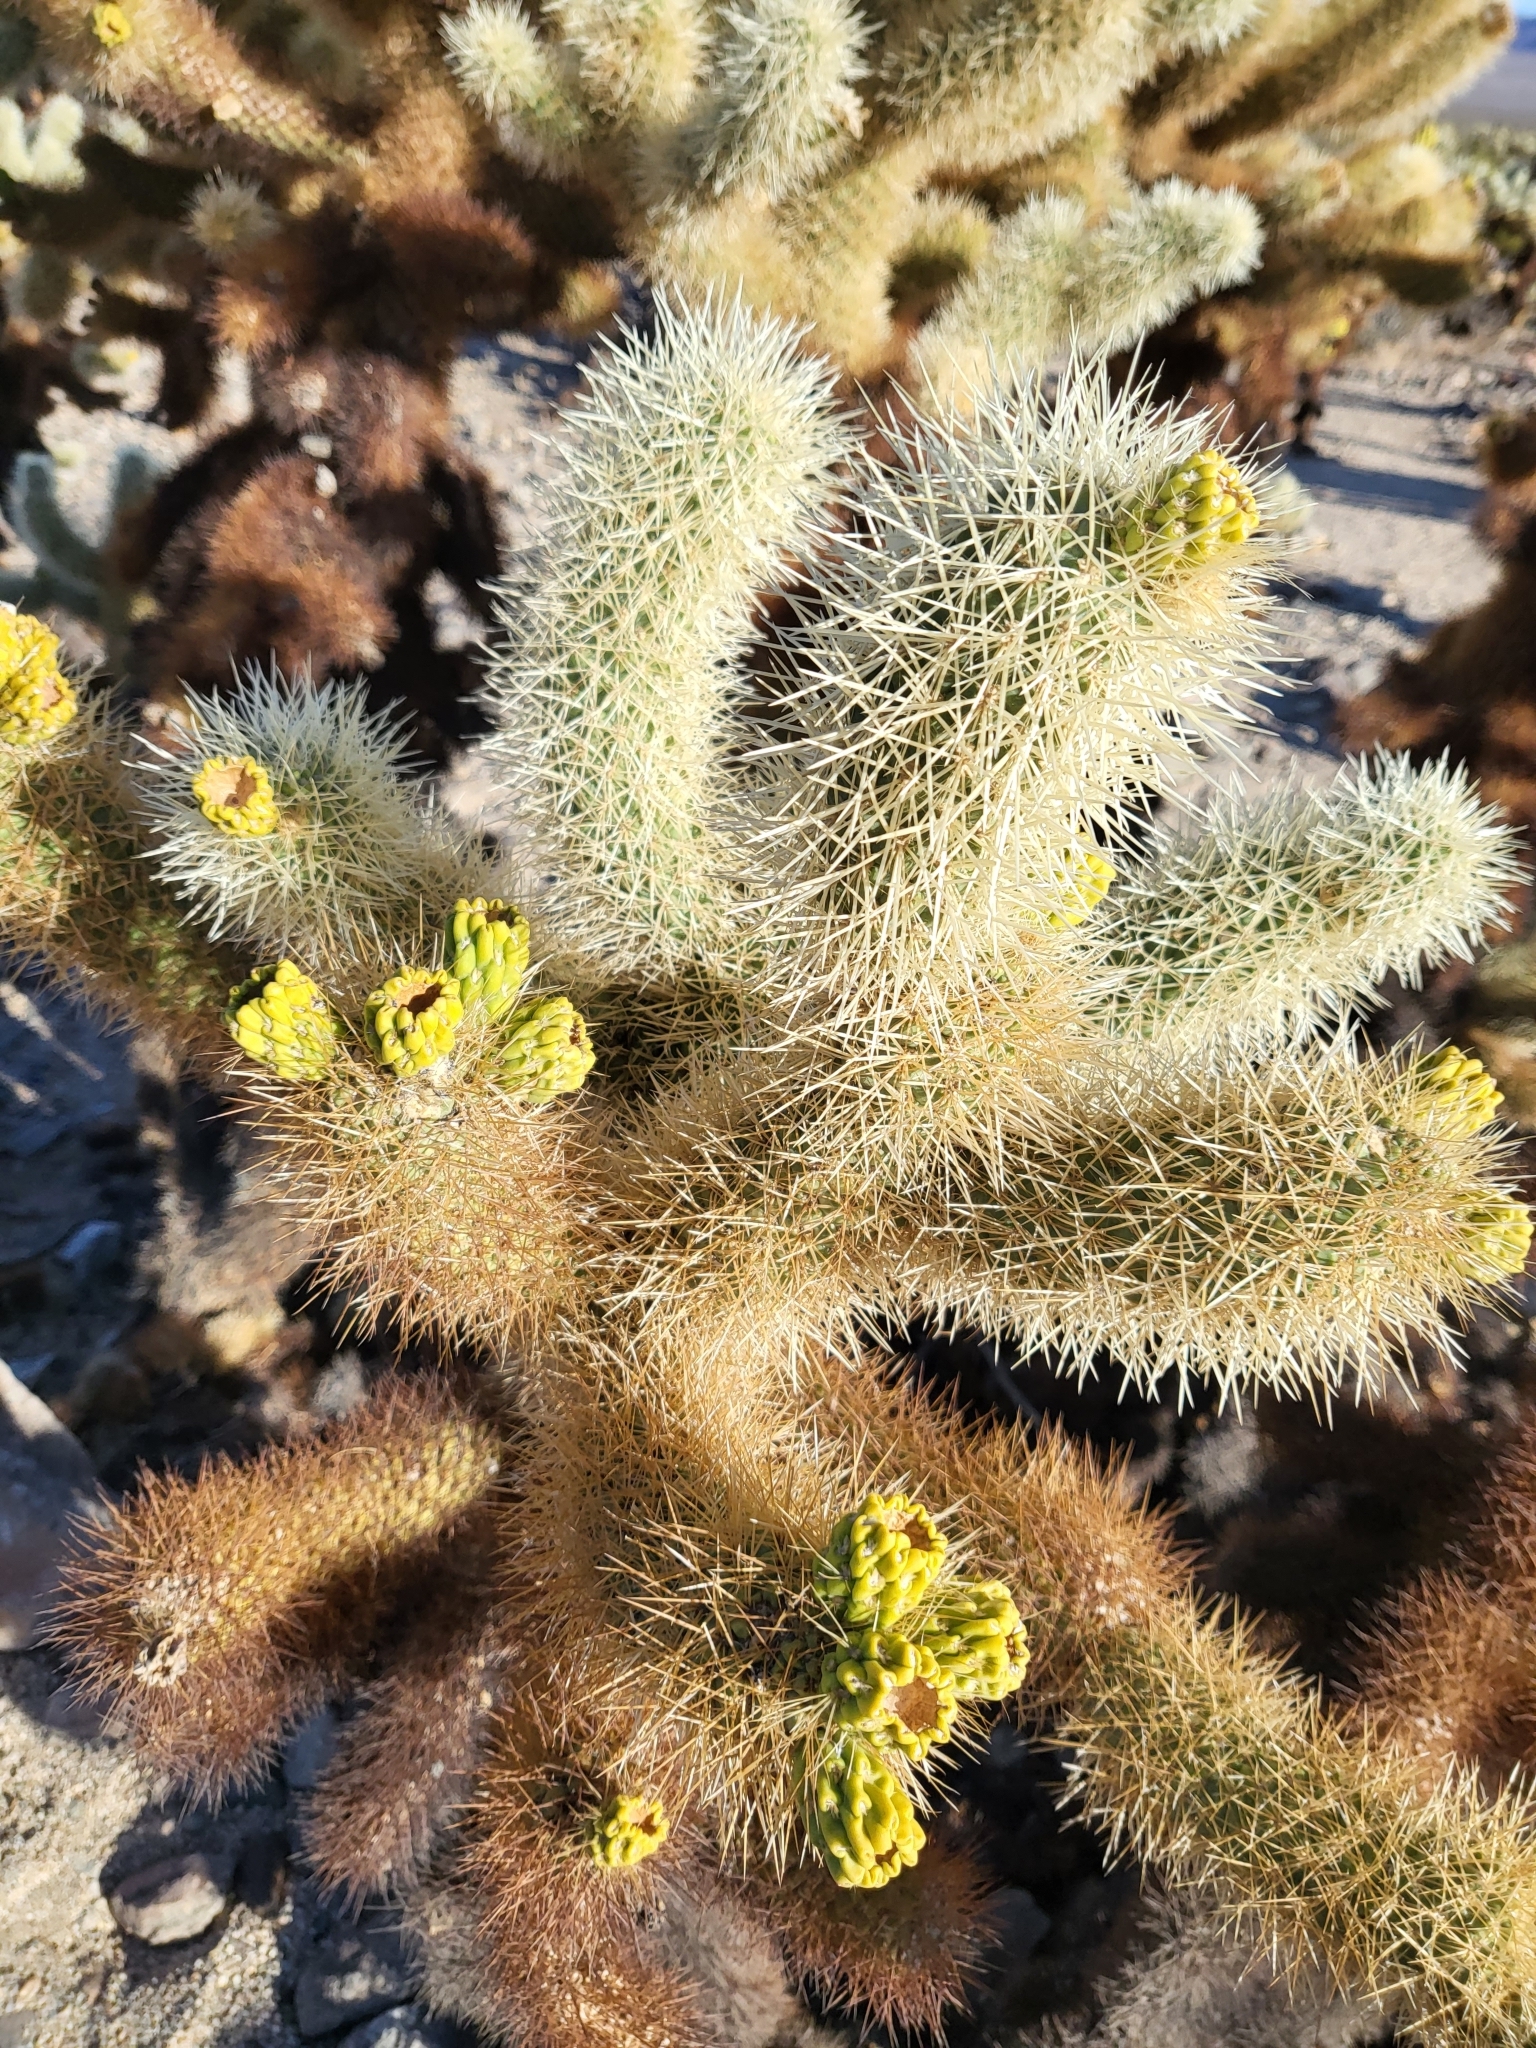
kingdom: Plantae
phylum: Tracheophyta
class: Magnoliopsida
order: Caryophyllales
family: Cactaceae
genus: Cylindropuntia
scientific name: Cylindropuntia fosbergii
